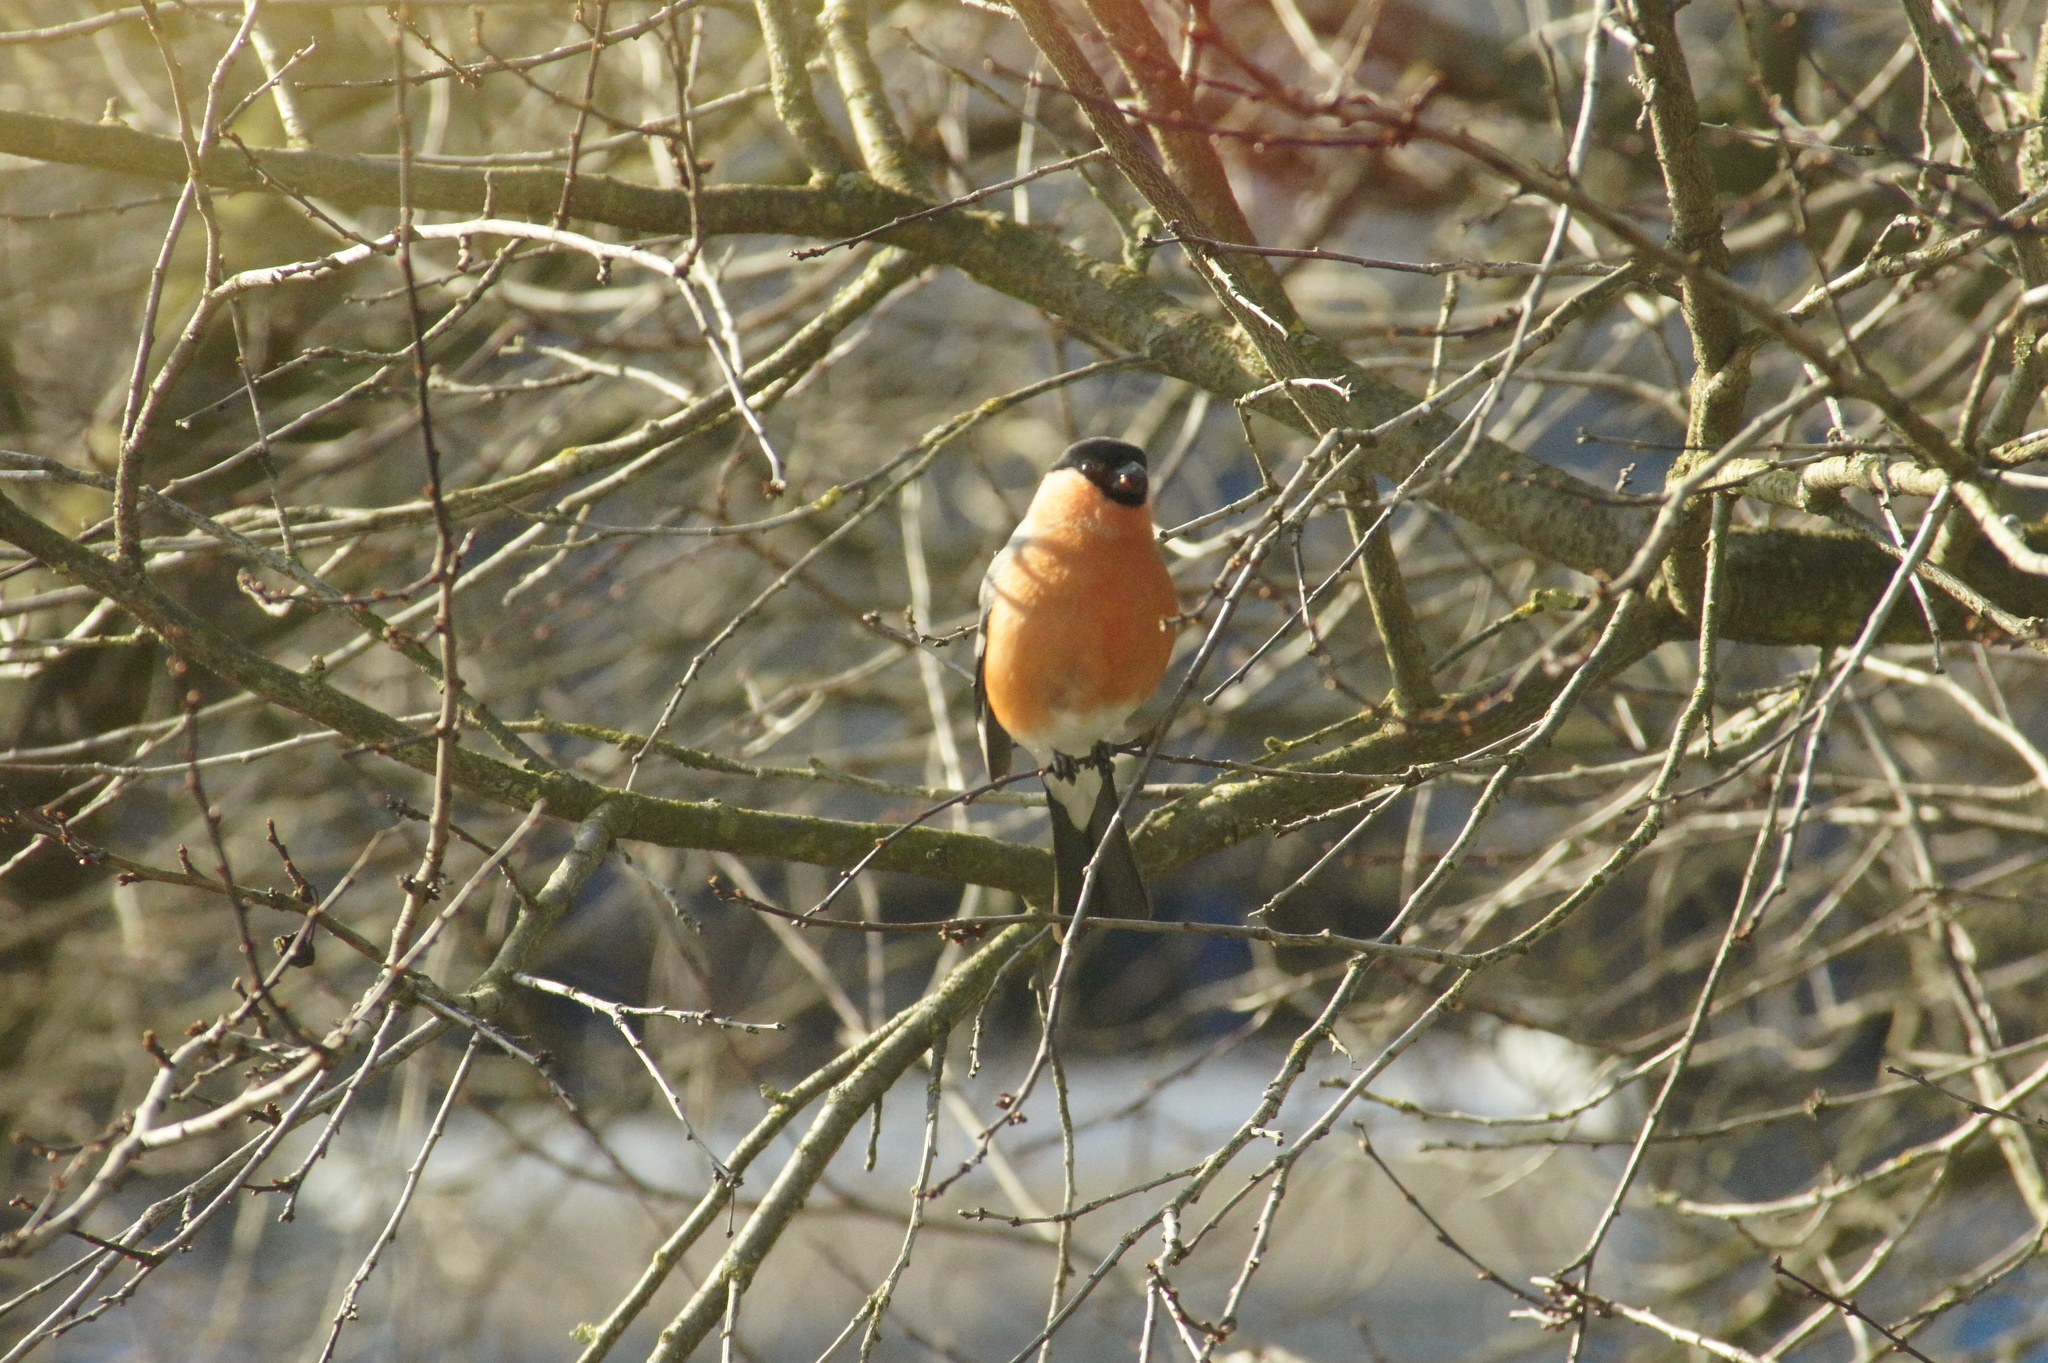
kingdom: Animalia
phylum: Chordata
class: Aves
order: Passeriformes
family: Fringillidae
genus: Pyrrhula
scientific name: Pyrrhula pyrrhula
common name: Eurasian bullfinch
